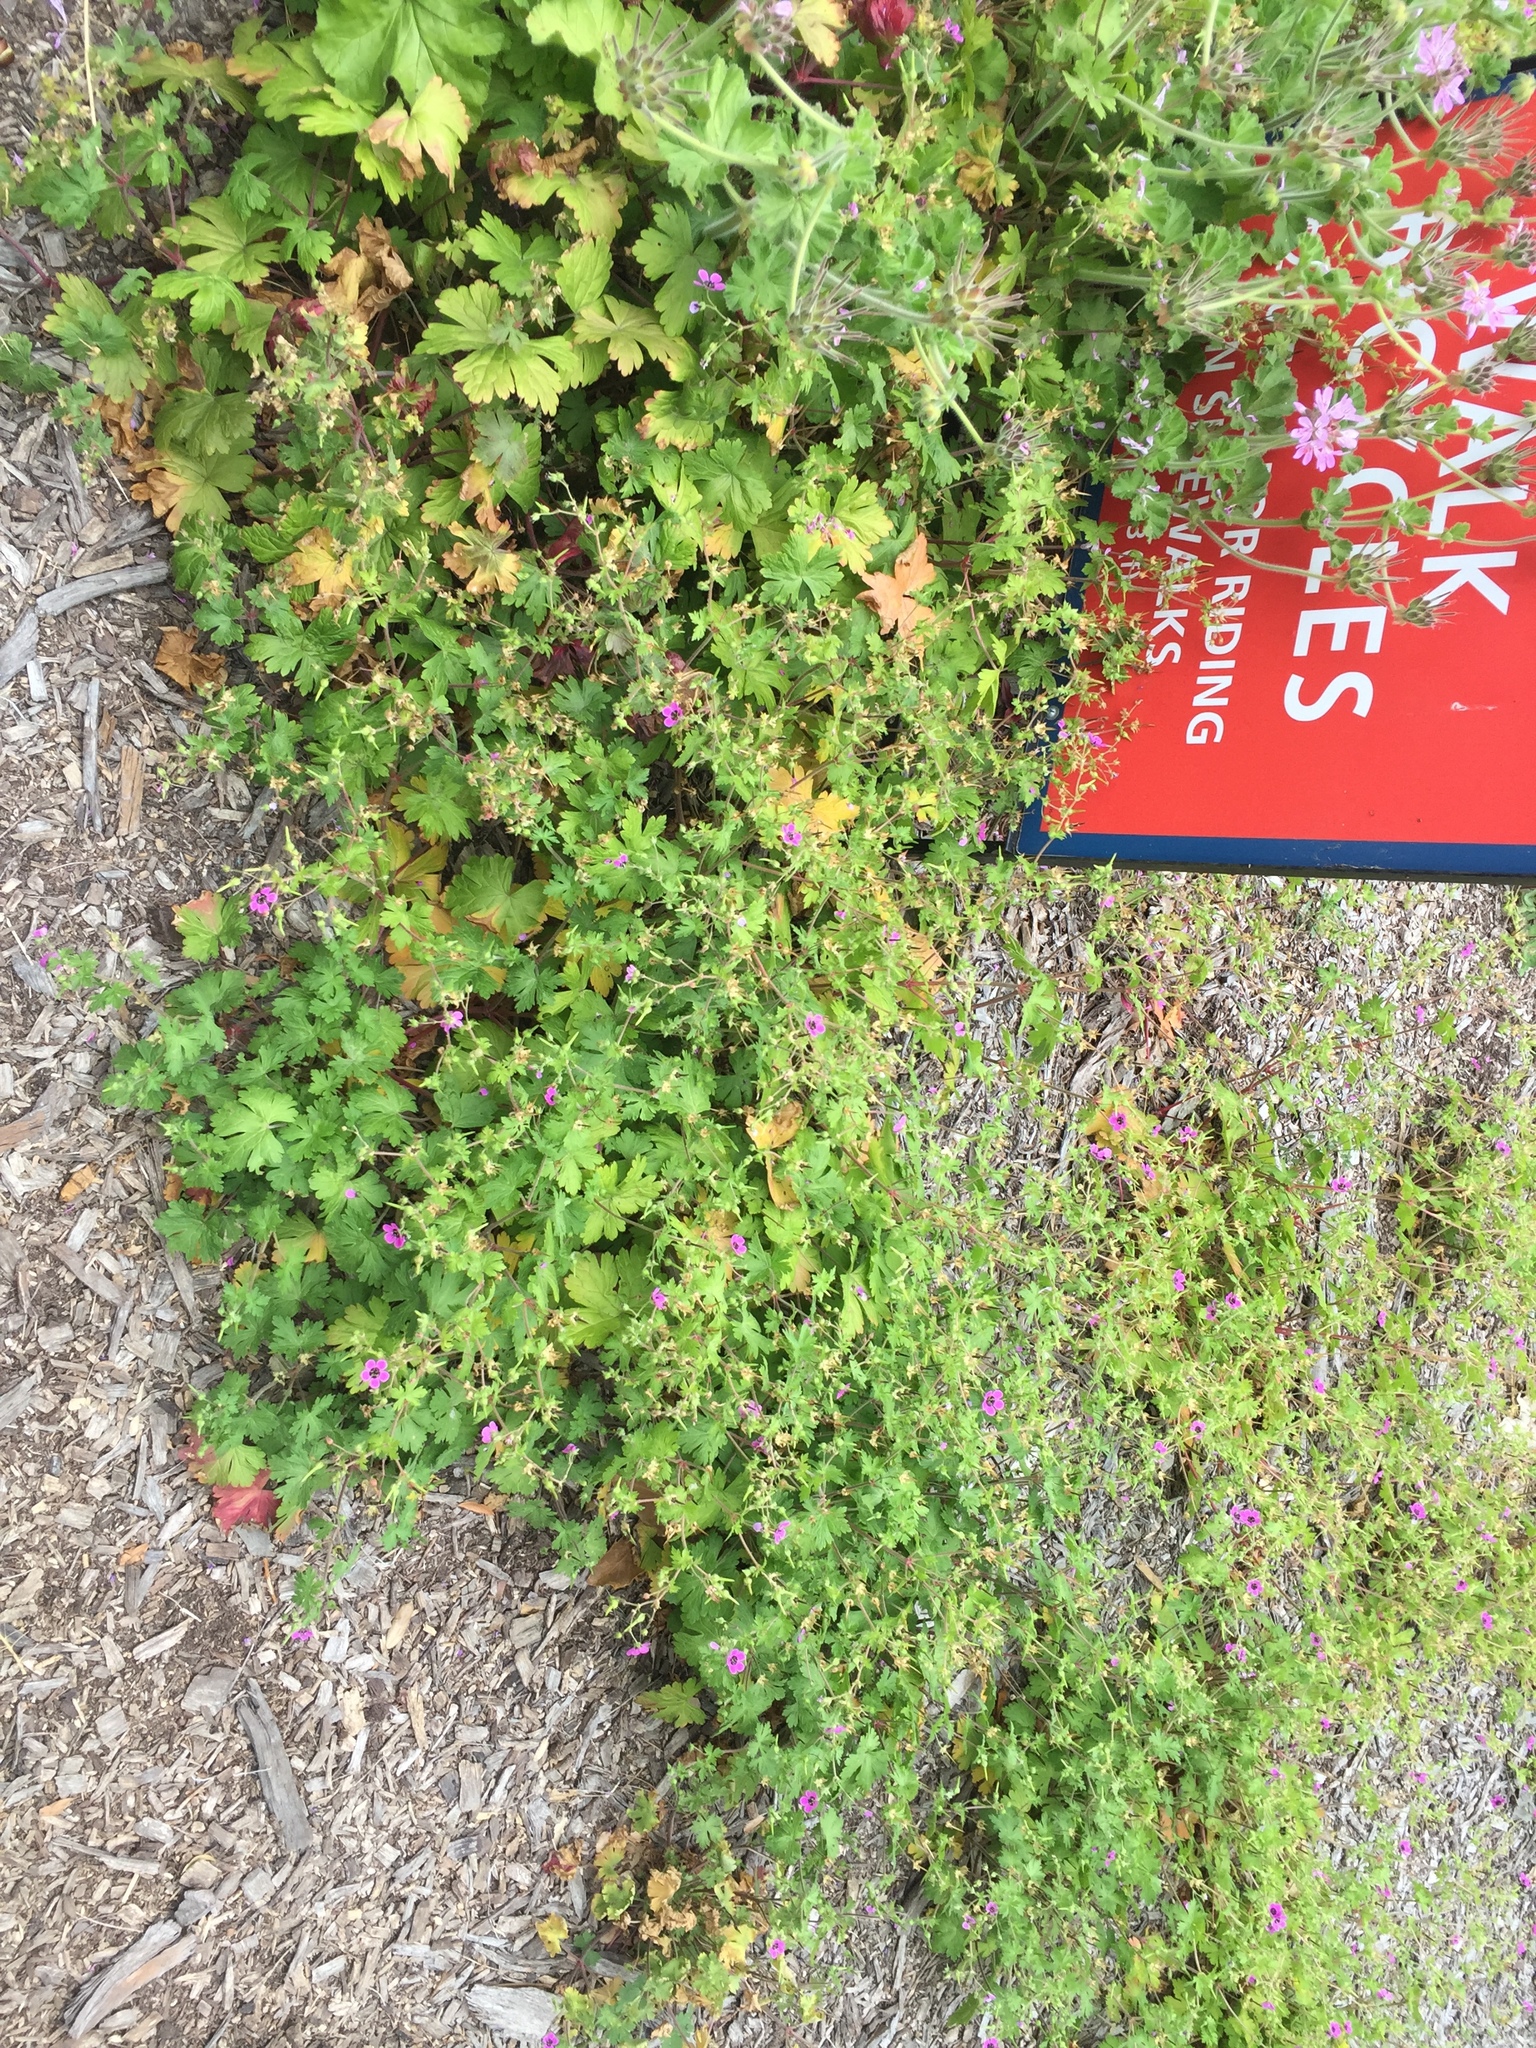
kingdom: Plantae
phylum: Tracheophyta
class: Magnoliopsida
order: Geraniales
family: Geraniaceae
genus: Geranium
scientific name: Geranium ocellatum
